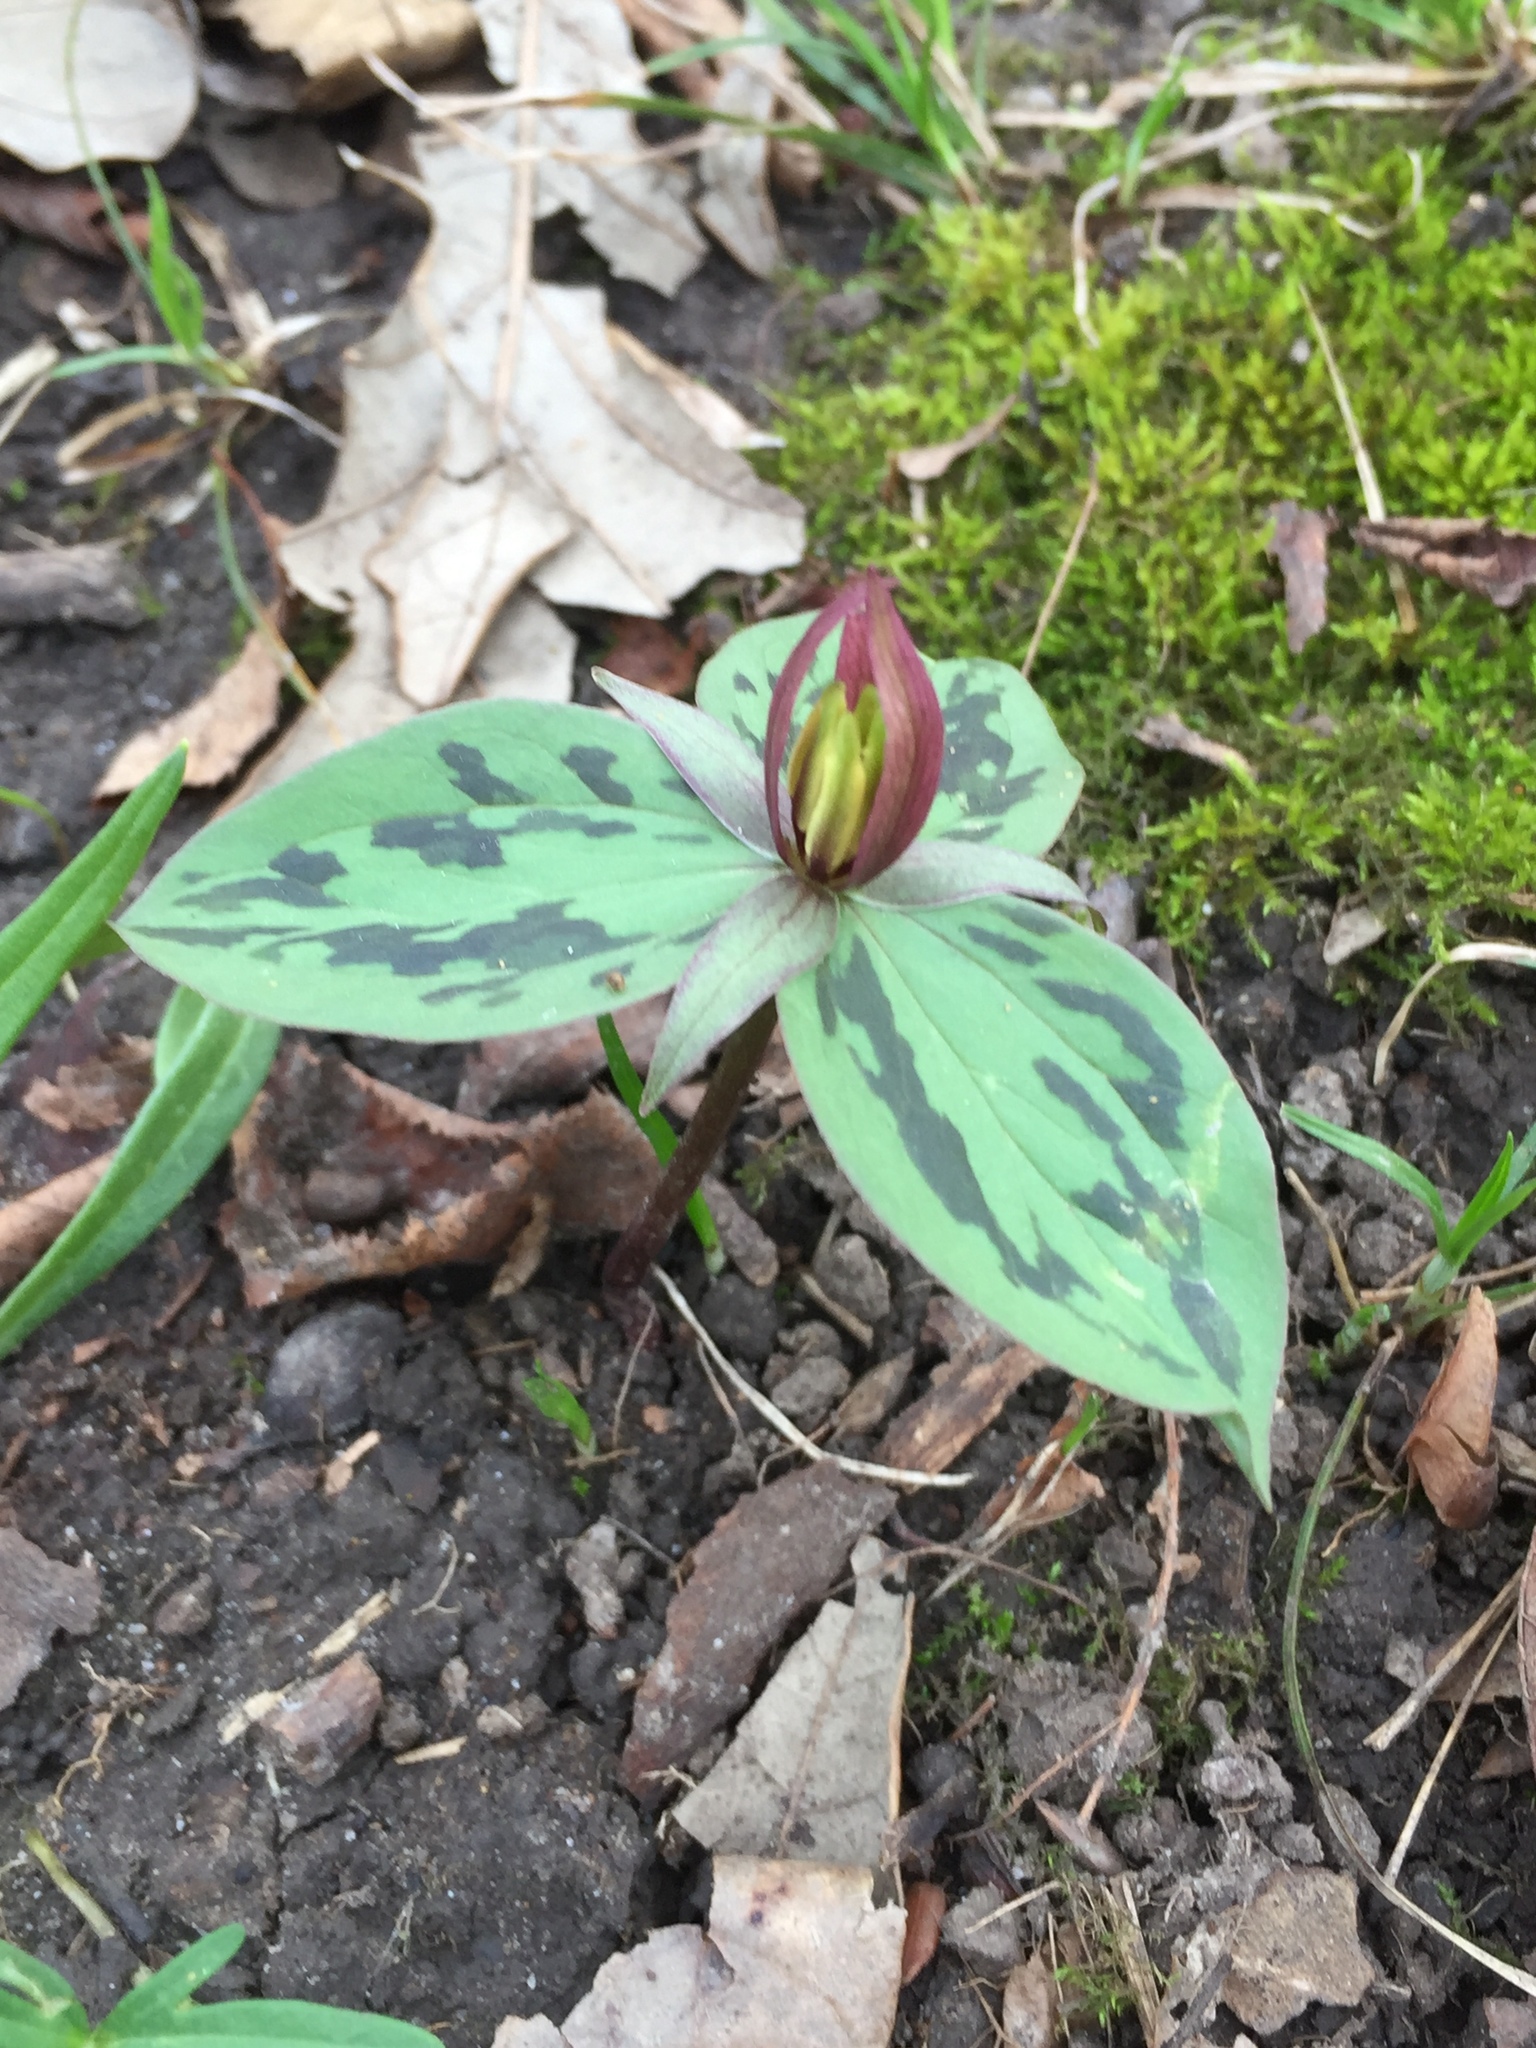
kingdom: Plantae
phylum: Tracheophyta
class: Liliopsida
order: Liliales
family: Melanthiaceae
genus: Trillium
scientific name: Trillium sessile
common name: Sessile trillium
